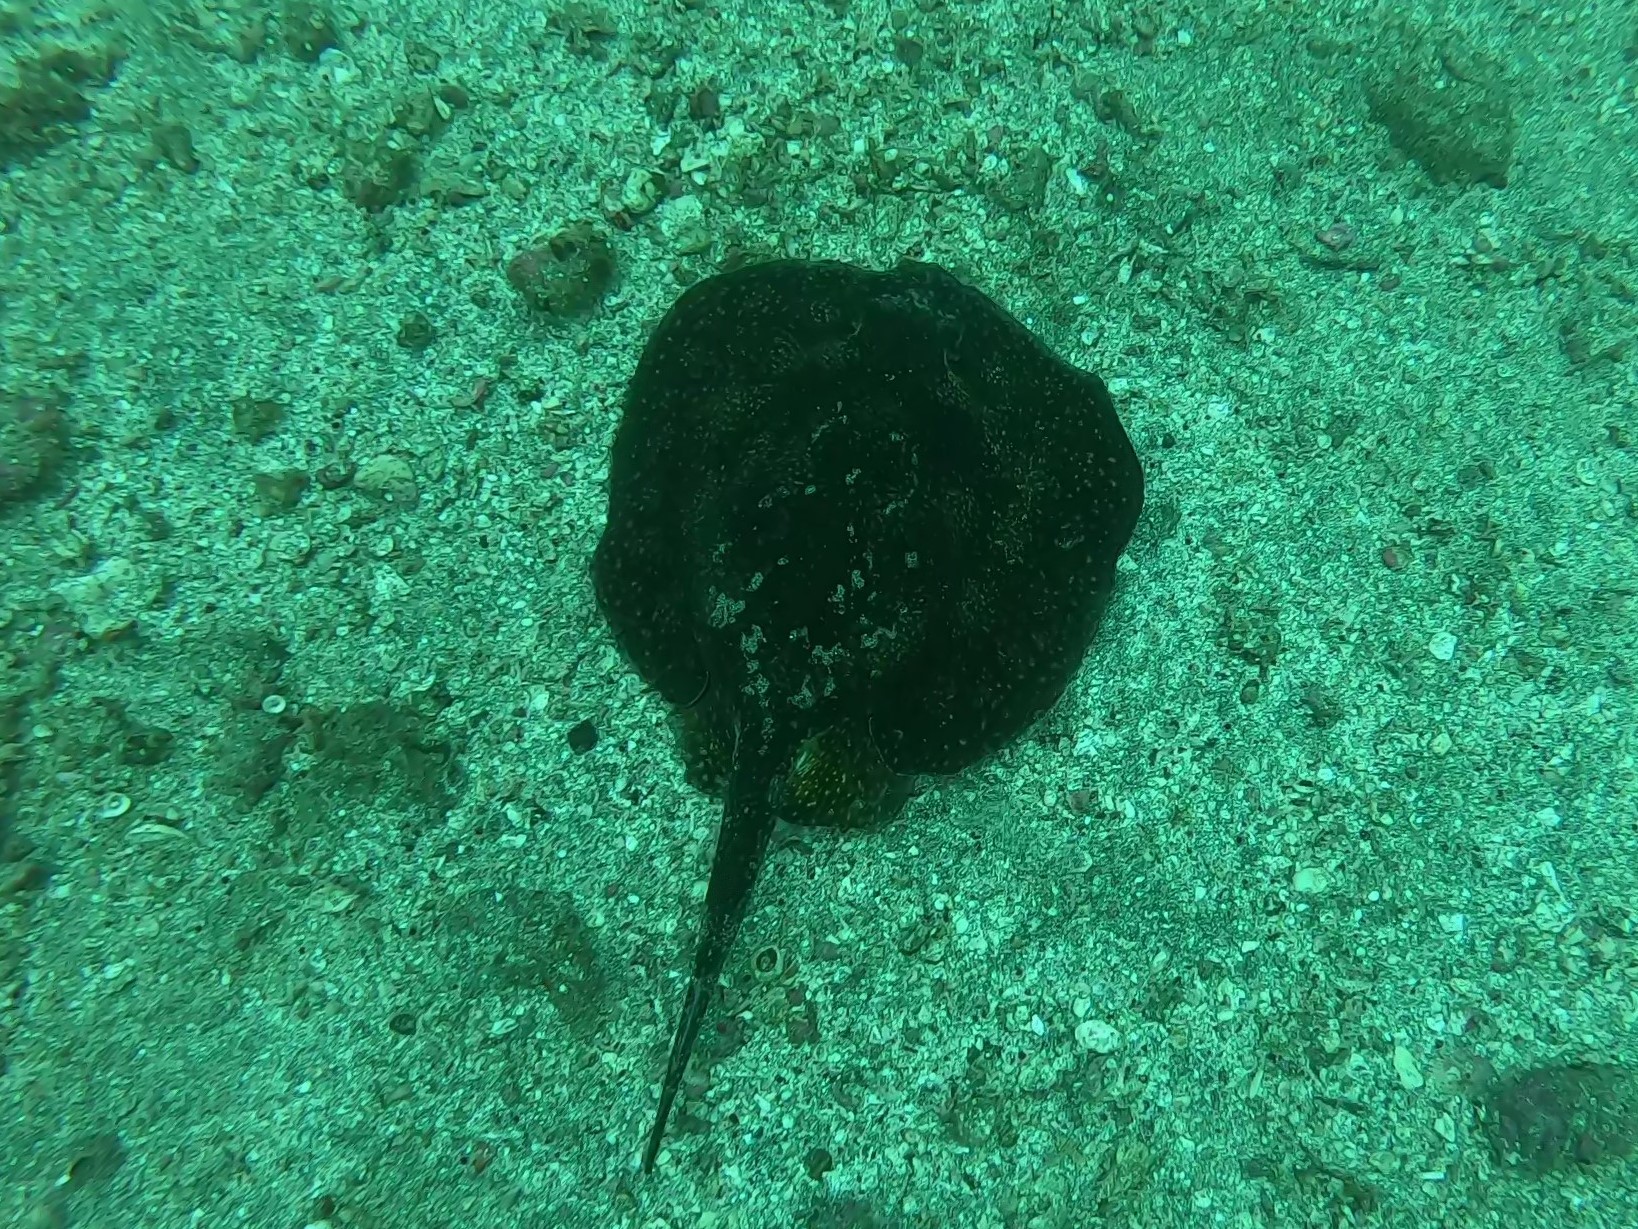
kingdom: Animalia
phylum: Chordata
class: Elasmobranchii
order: Myliobatiformes
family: Urotrygonidae
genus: Urobatis
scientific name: Urobatis tumbesensis
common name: Tumbes round stingray
